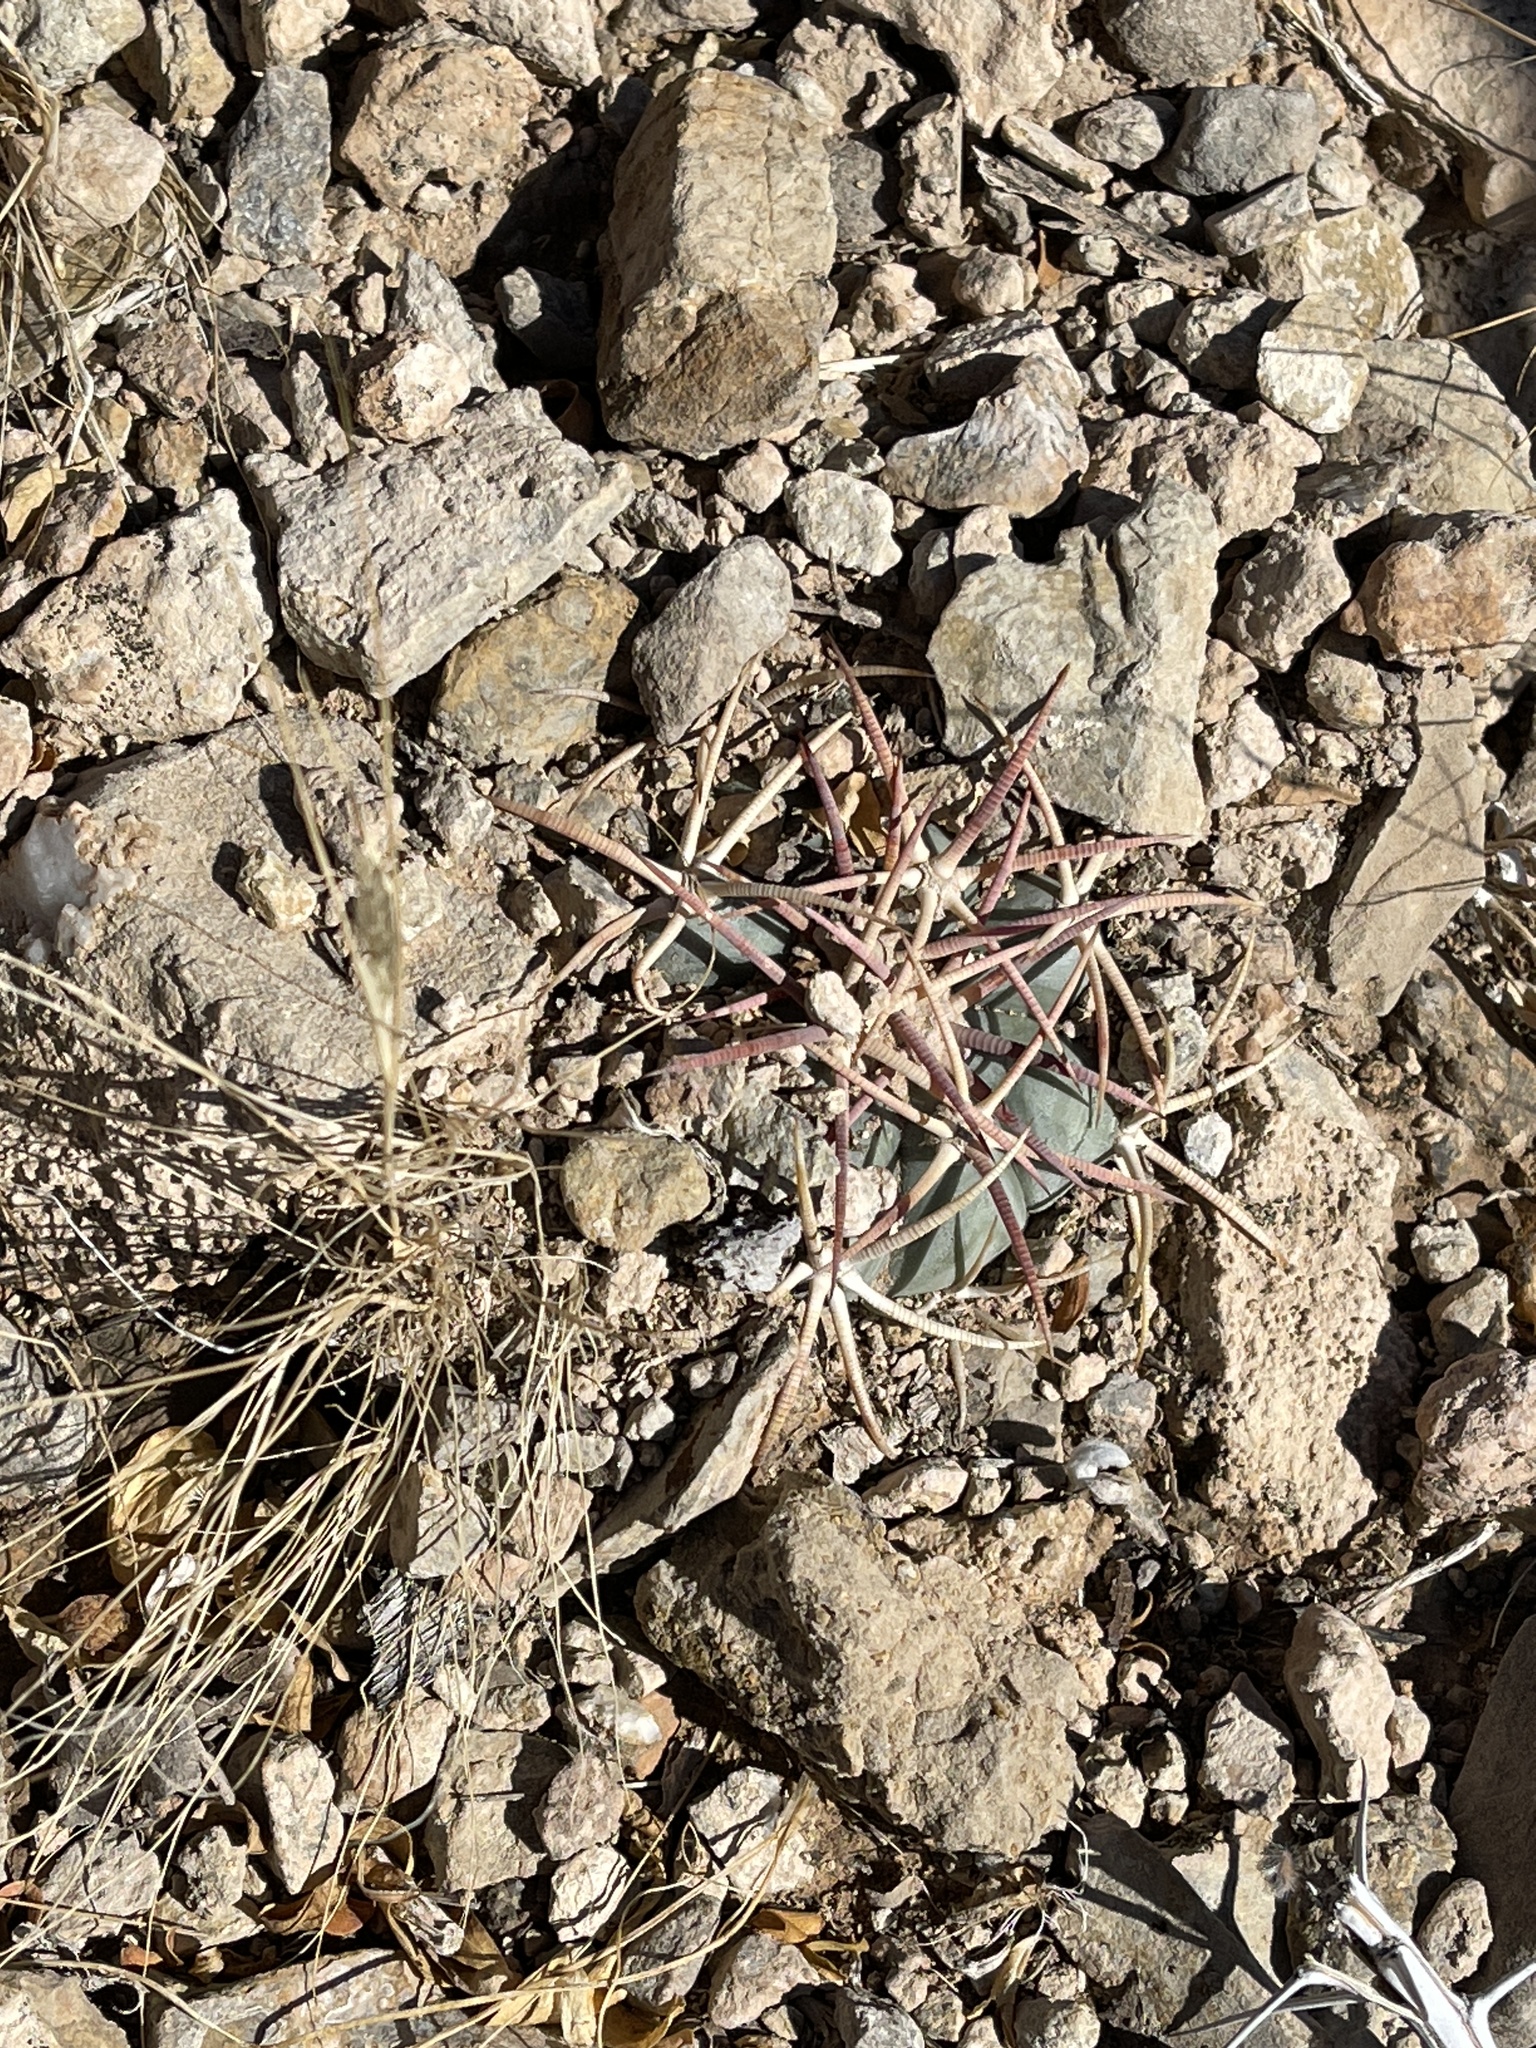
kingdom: Plantae
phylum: Tracheophyta
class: Magnoliopsida
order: Caryophyllales
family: Cactaceae
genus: Echinocactus
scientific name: Echinocactus horizonthalonius
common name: Devilshead
